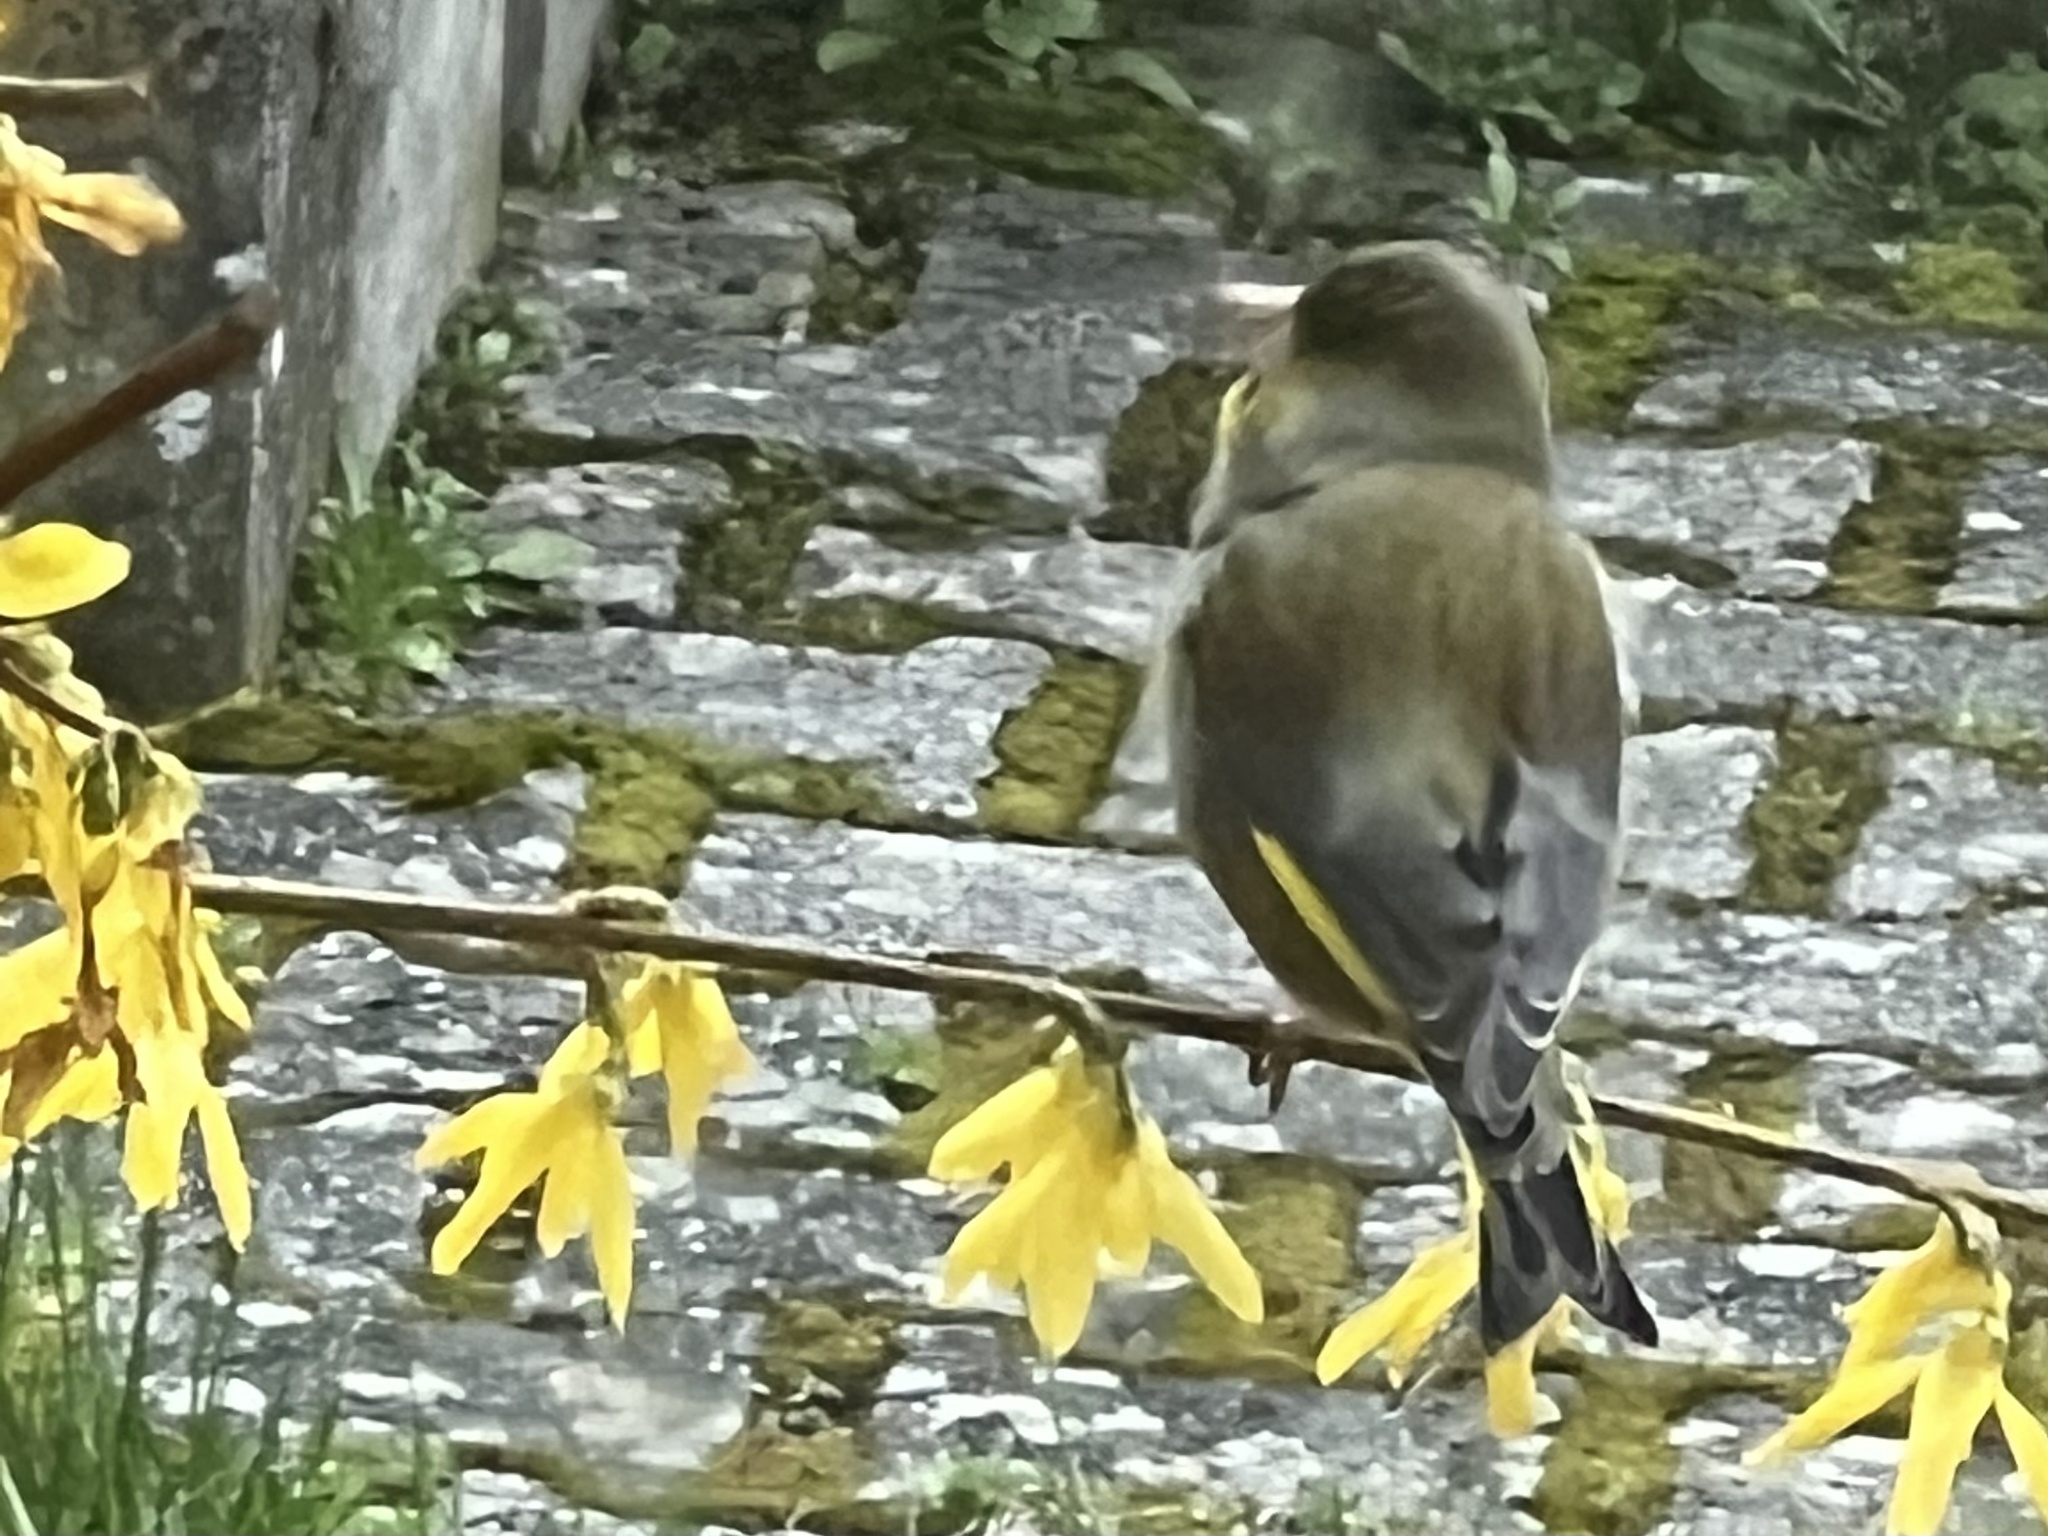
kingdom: Plantae
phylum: Tracheophyta
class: Liliopsida
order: Poales
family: Poaceae
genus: Chloris
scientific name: Chloris chloris
